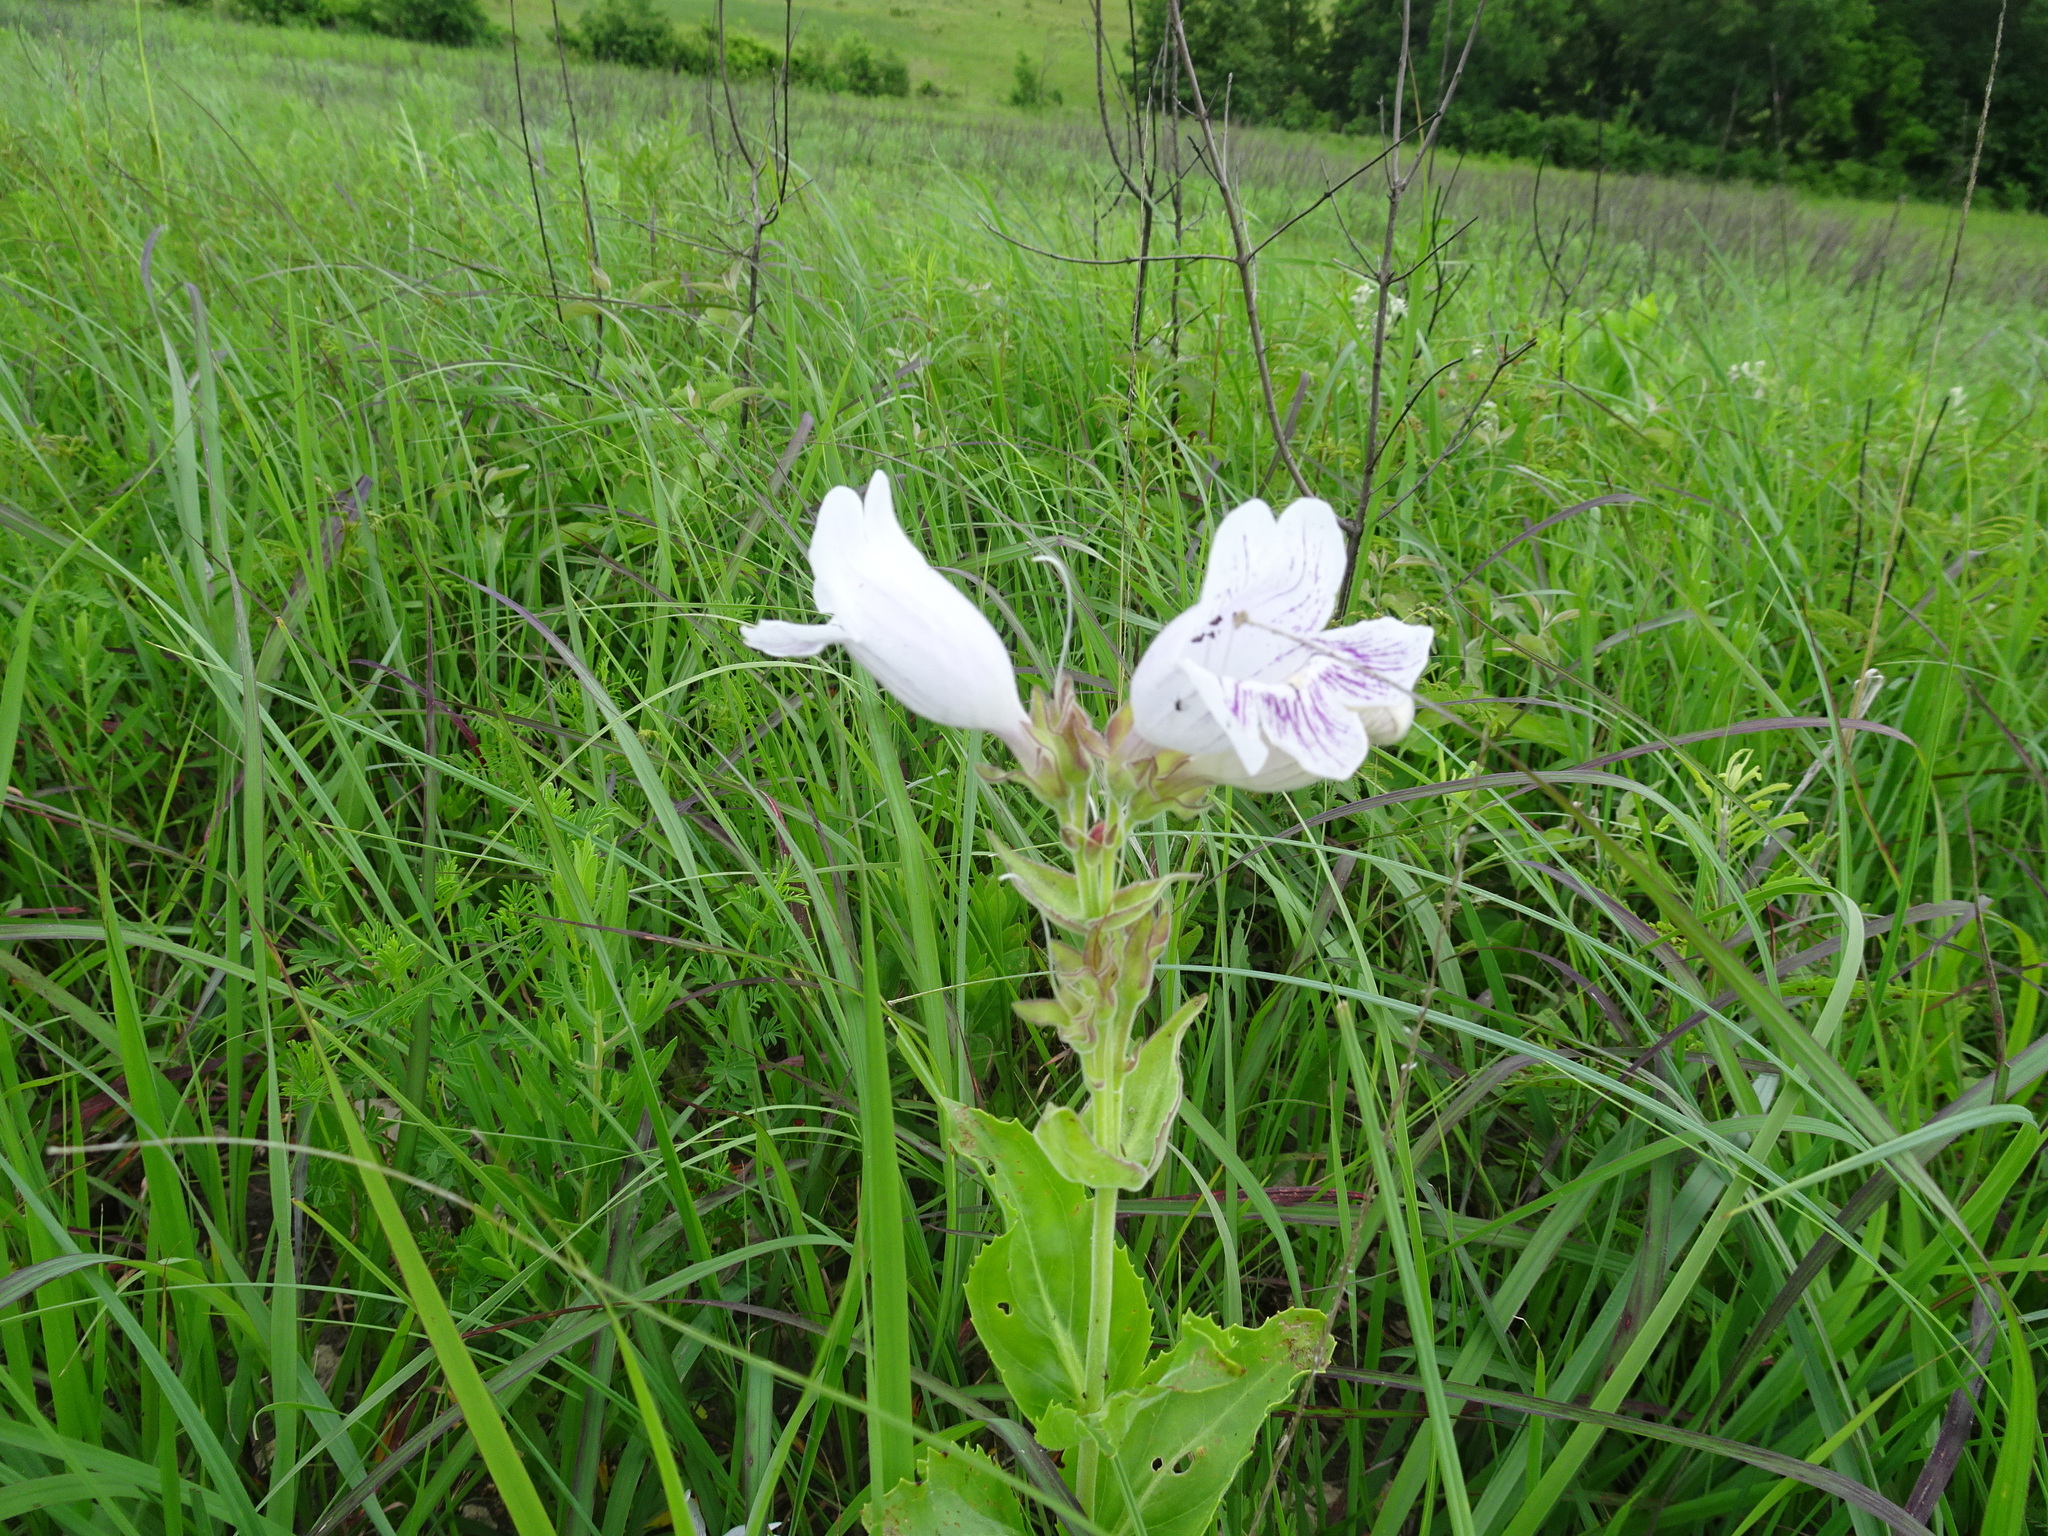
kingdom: Plantae
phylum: Tracheophyta
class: Magnoliopsida
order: Lamiales
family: Plantaginaceae
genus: Penstemon
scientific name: Penstemon cobaea
